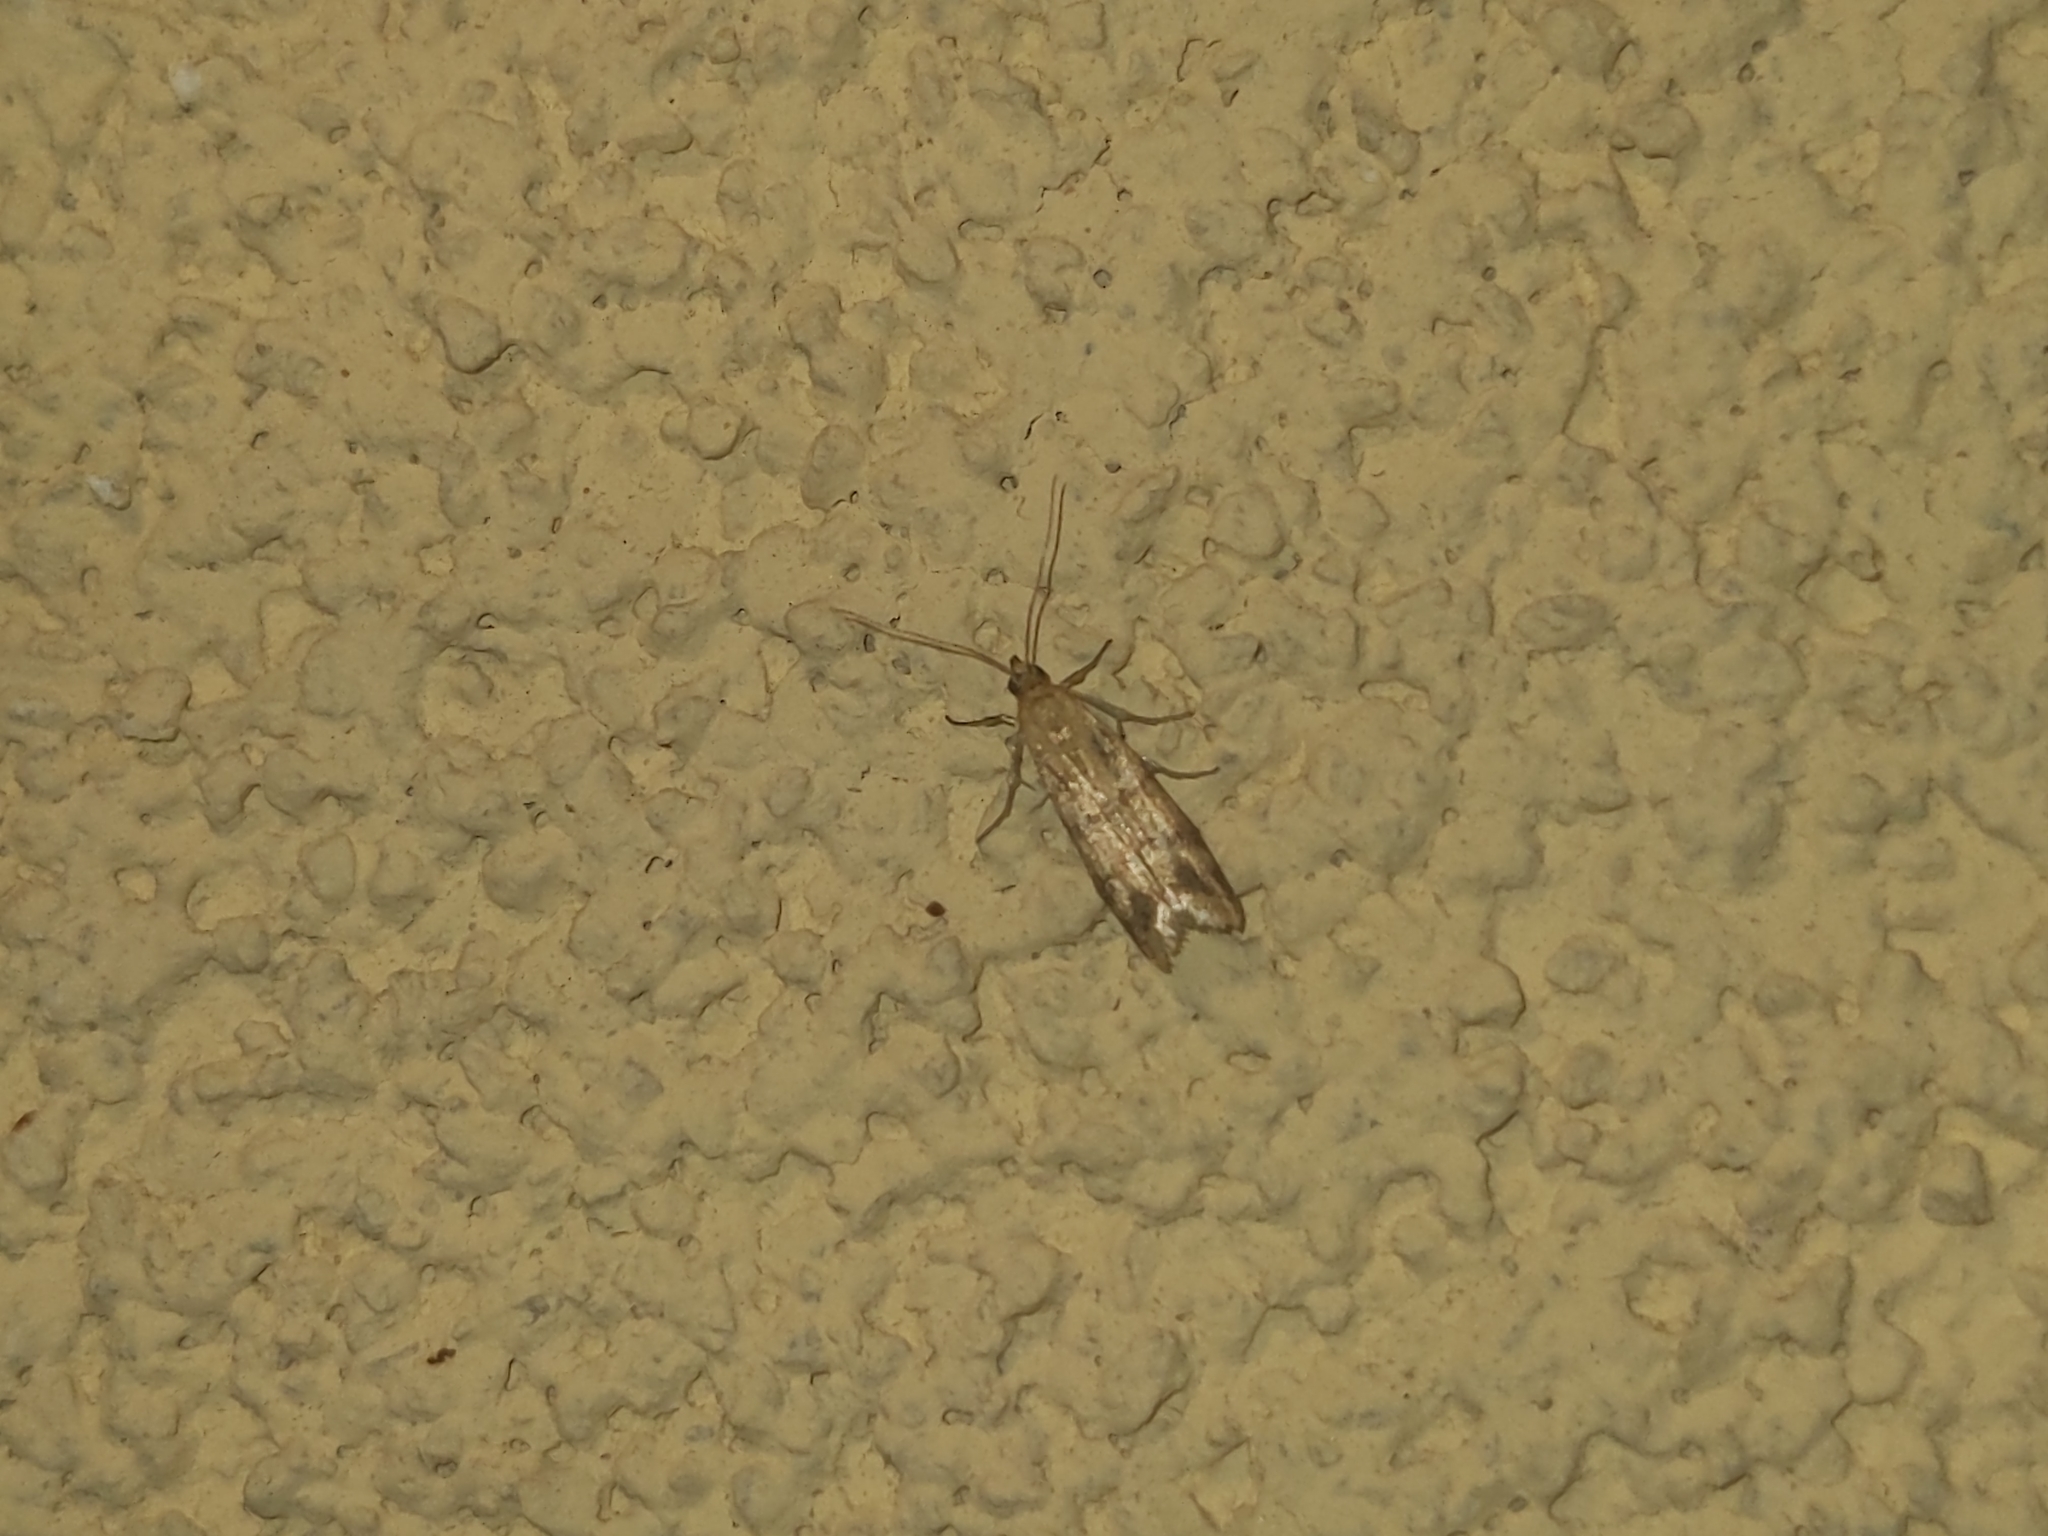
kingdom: Animalia
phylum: Arthropoda
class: Insecta
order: Lepidoptera
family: Pyralidae
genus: Homoeosoma
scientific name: Homoeosoma sinuella
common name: Twin-barred knot-horn
